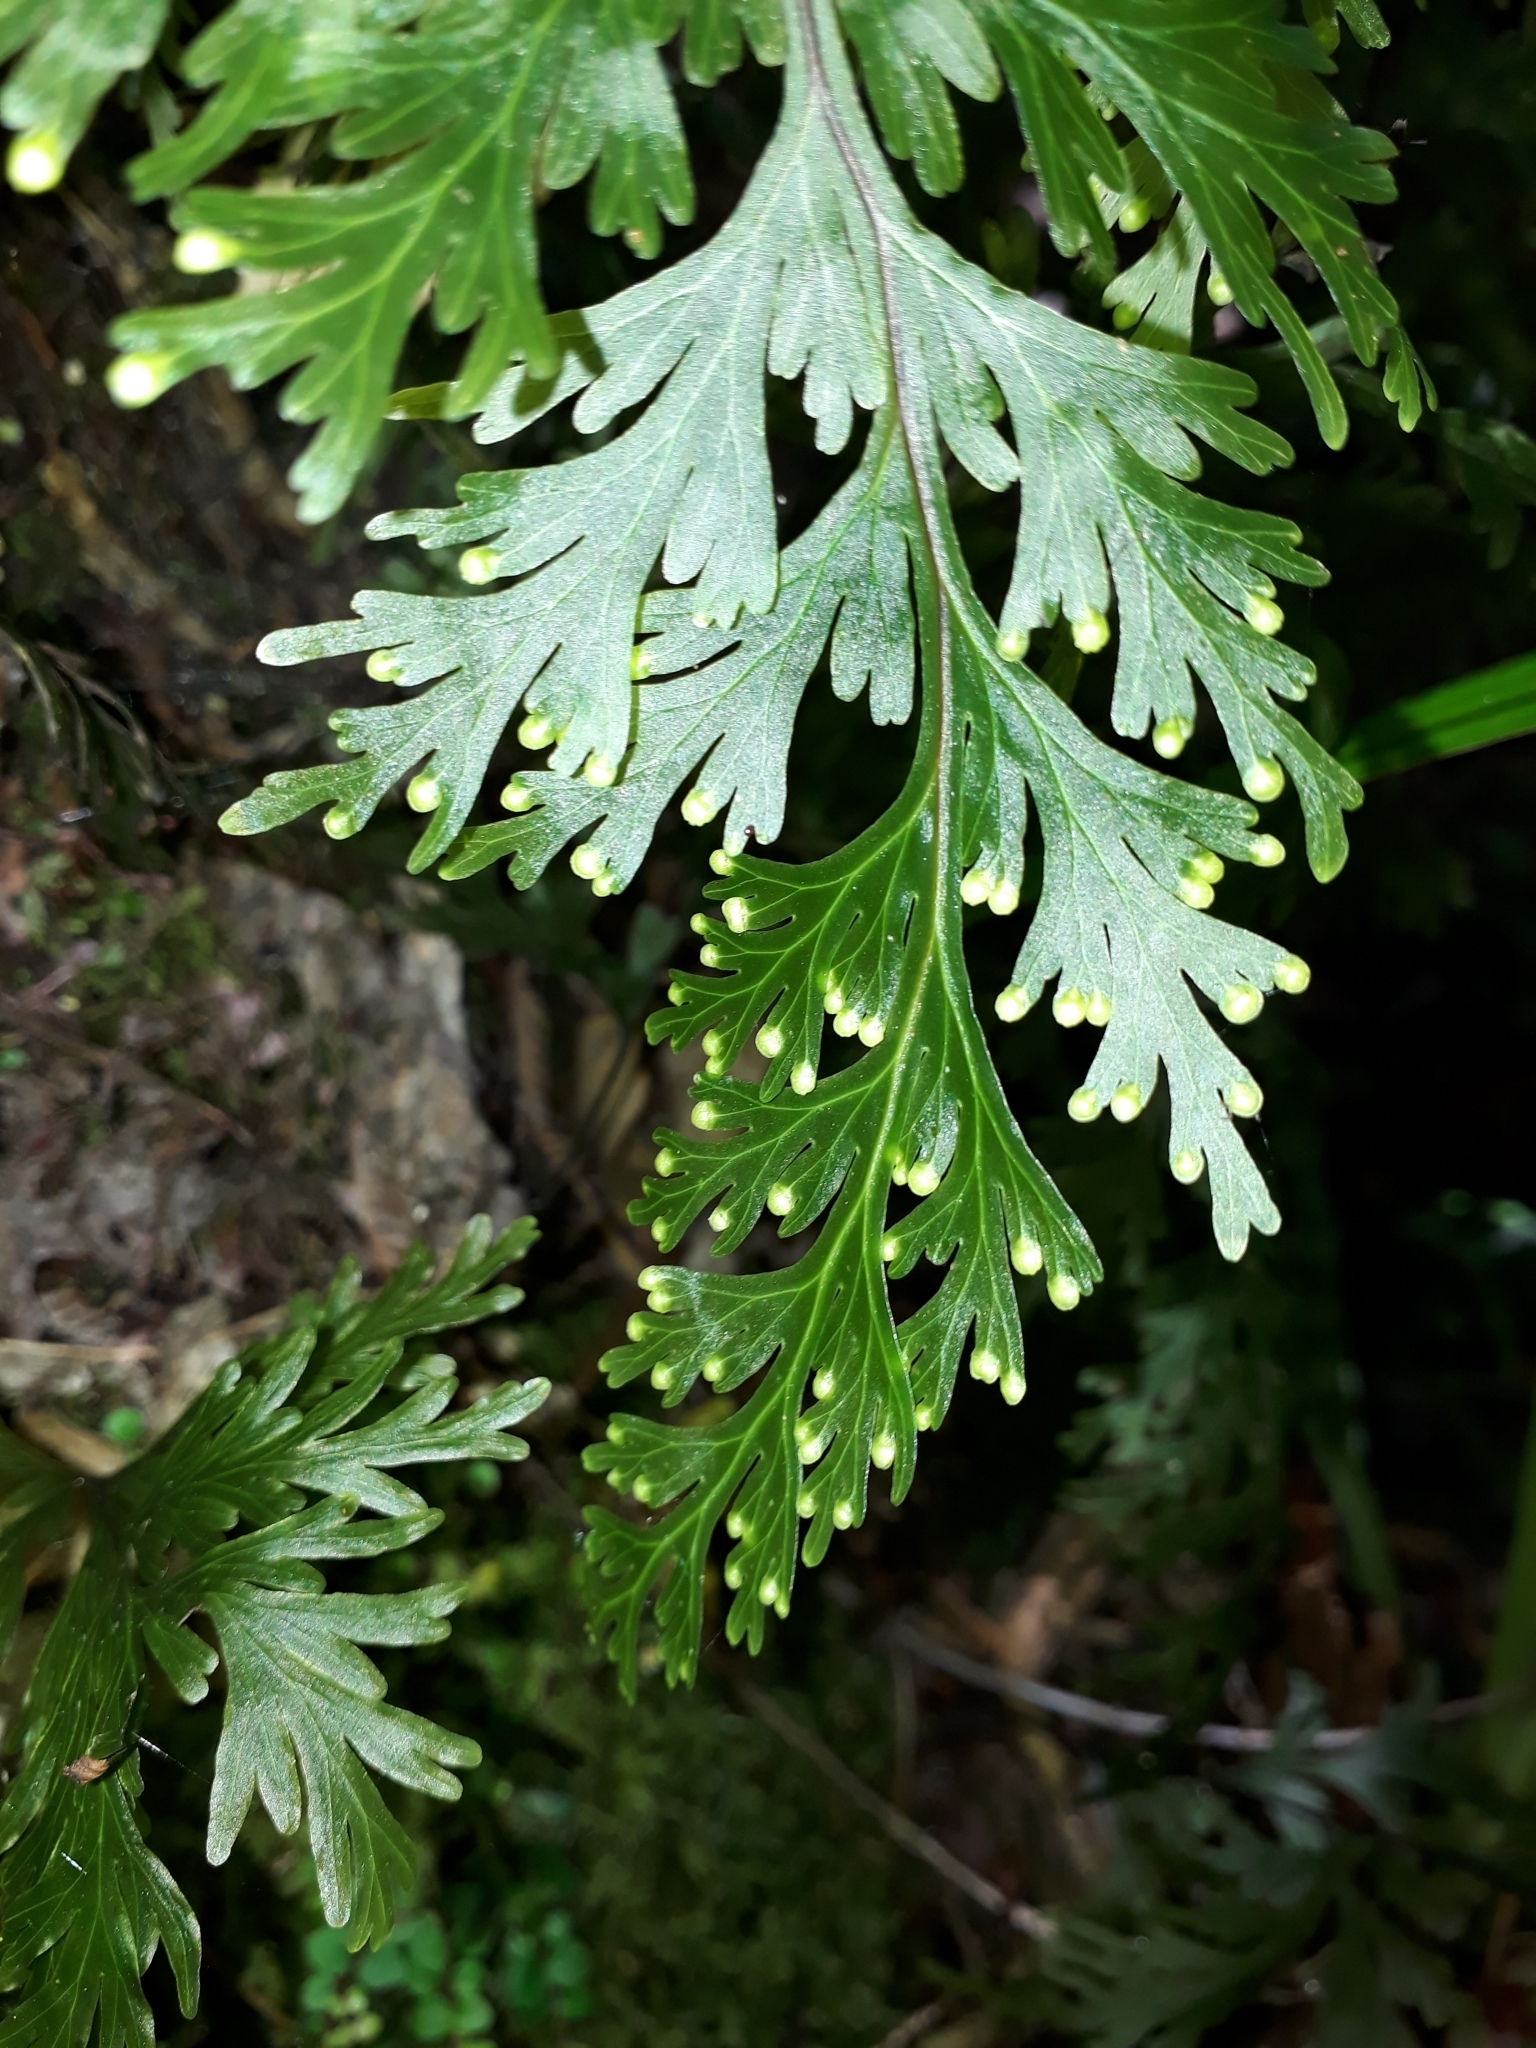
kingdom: Plantae
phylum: Tracheophyta
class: Polypodiopsida
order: Hymenophyllales
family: Hymenophyllaceae
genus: Hymenophyllum
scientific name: Hymenophyllum dilatatum
